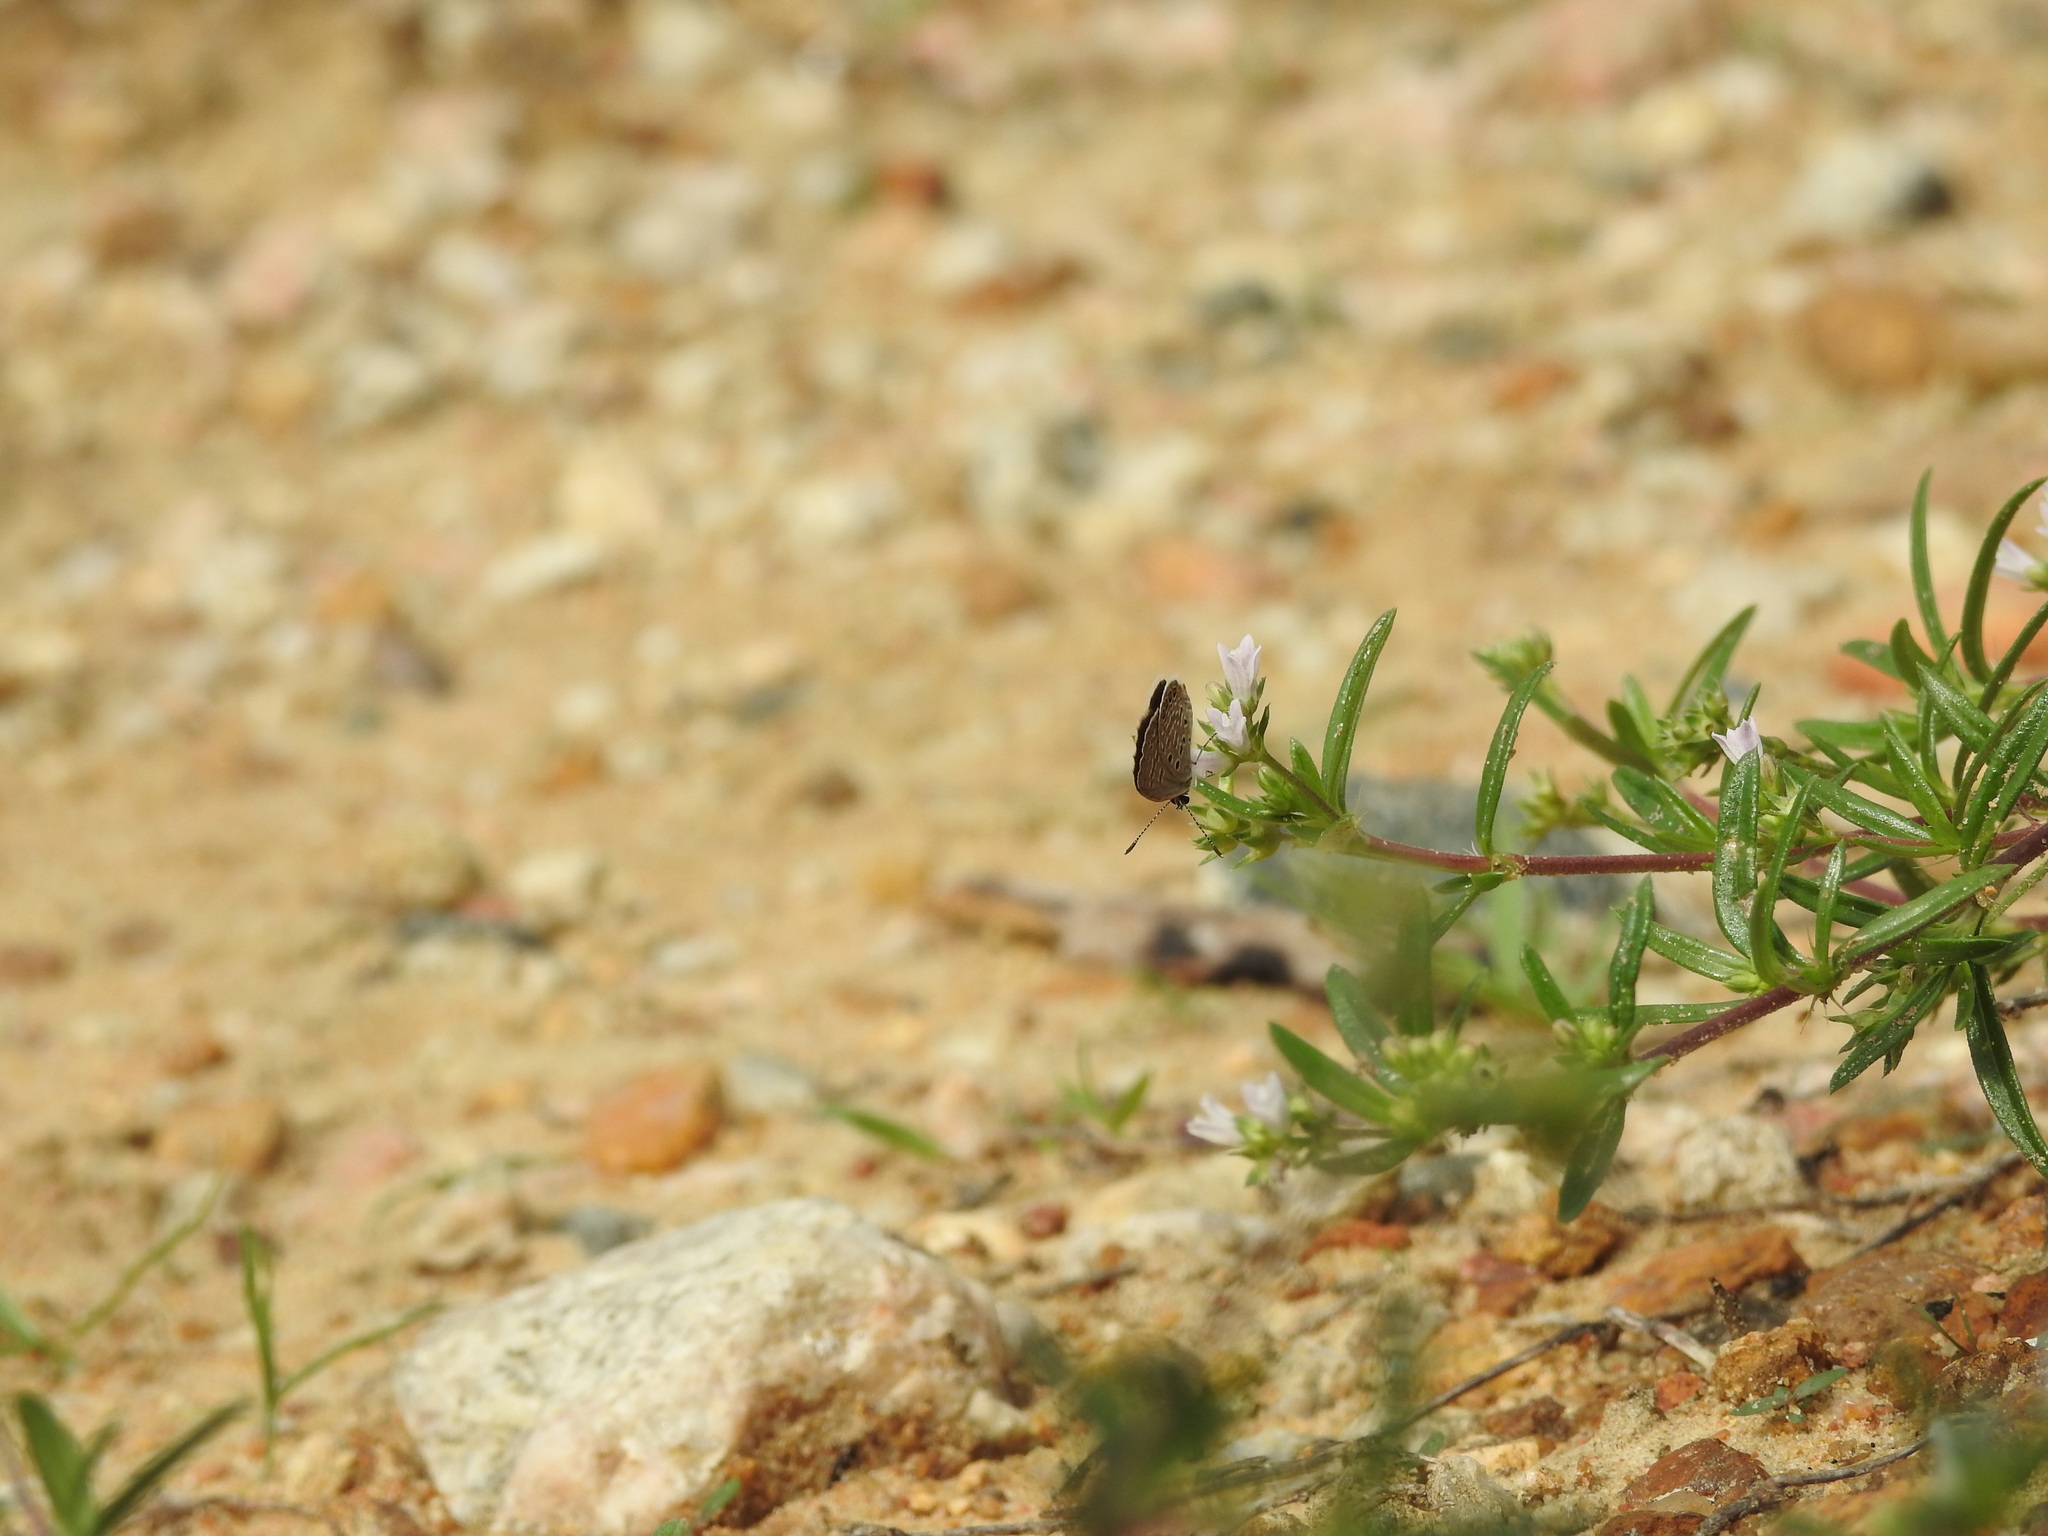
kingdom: Animalia
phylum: Arthropoda
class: Insecta
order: Lepidoptera
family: Lycaenidae
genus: Freyeria
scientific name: Freyeria putli
